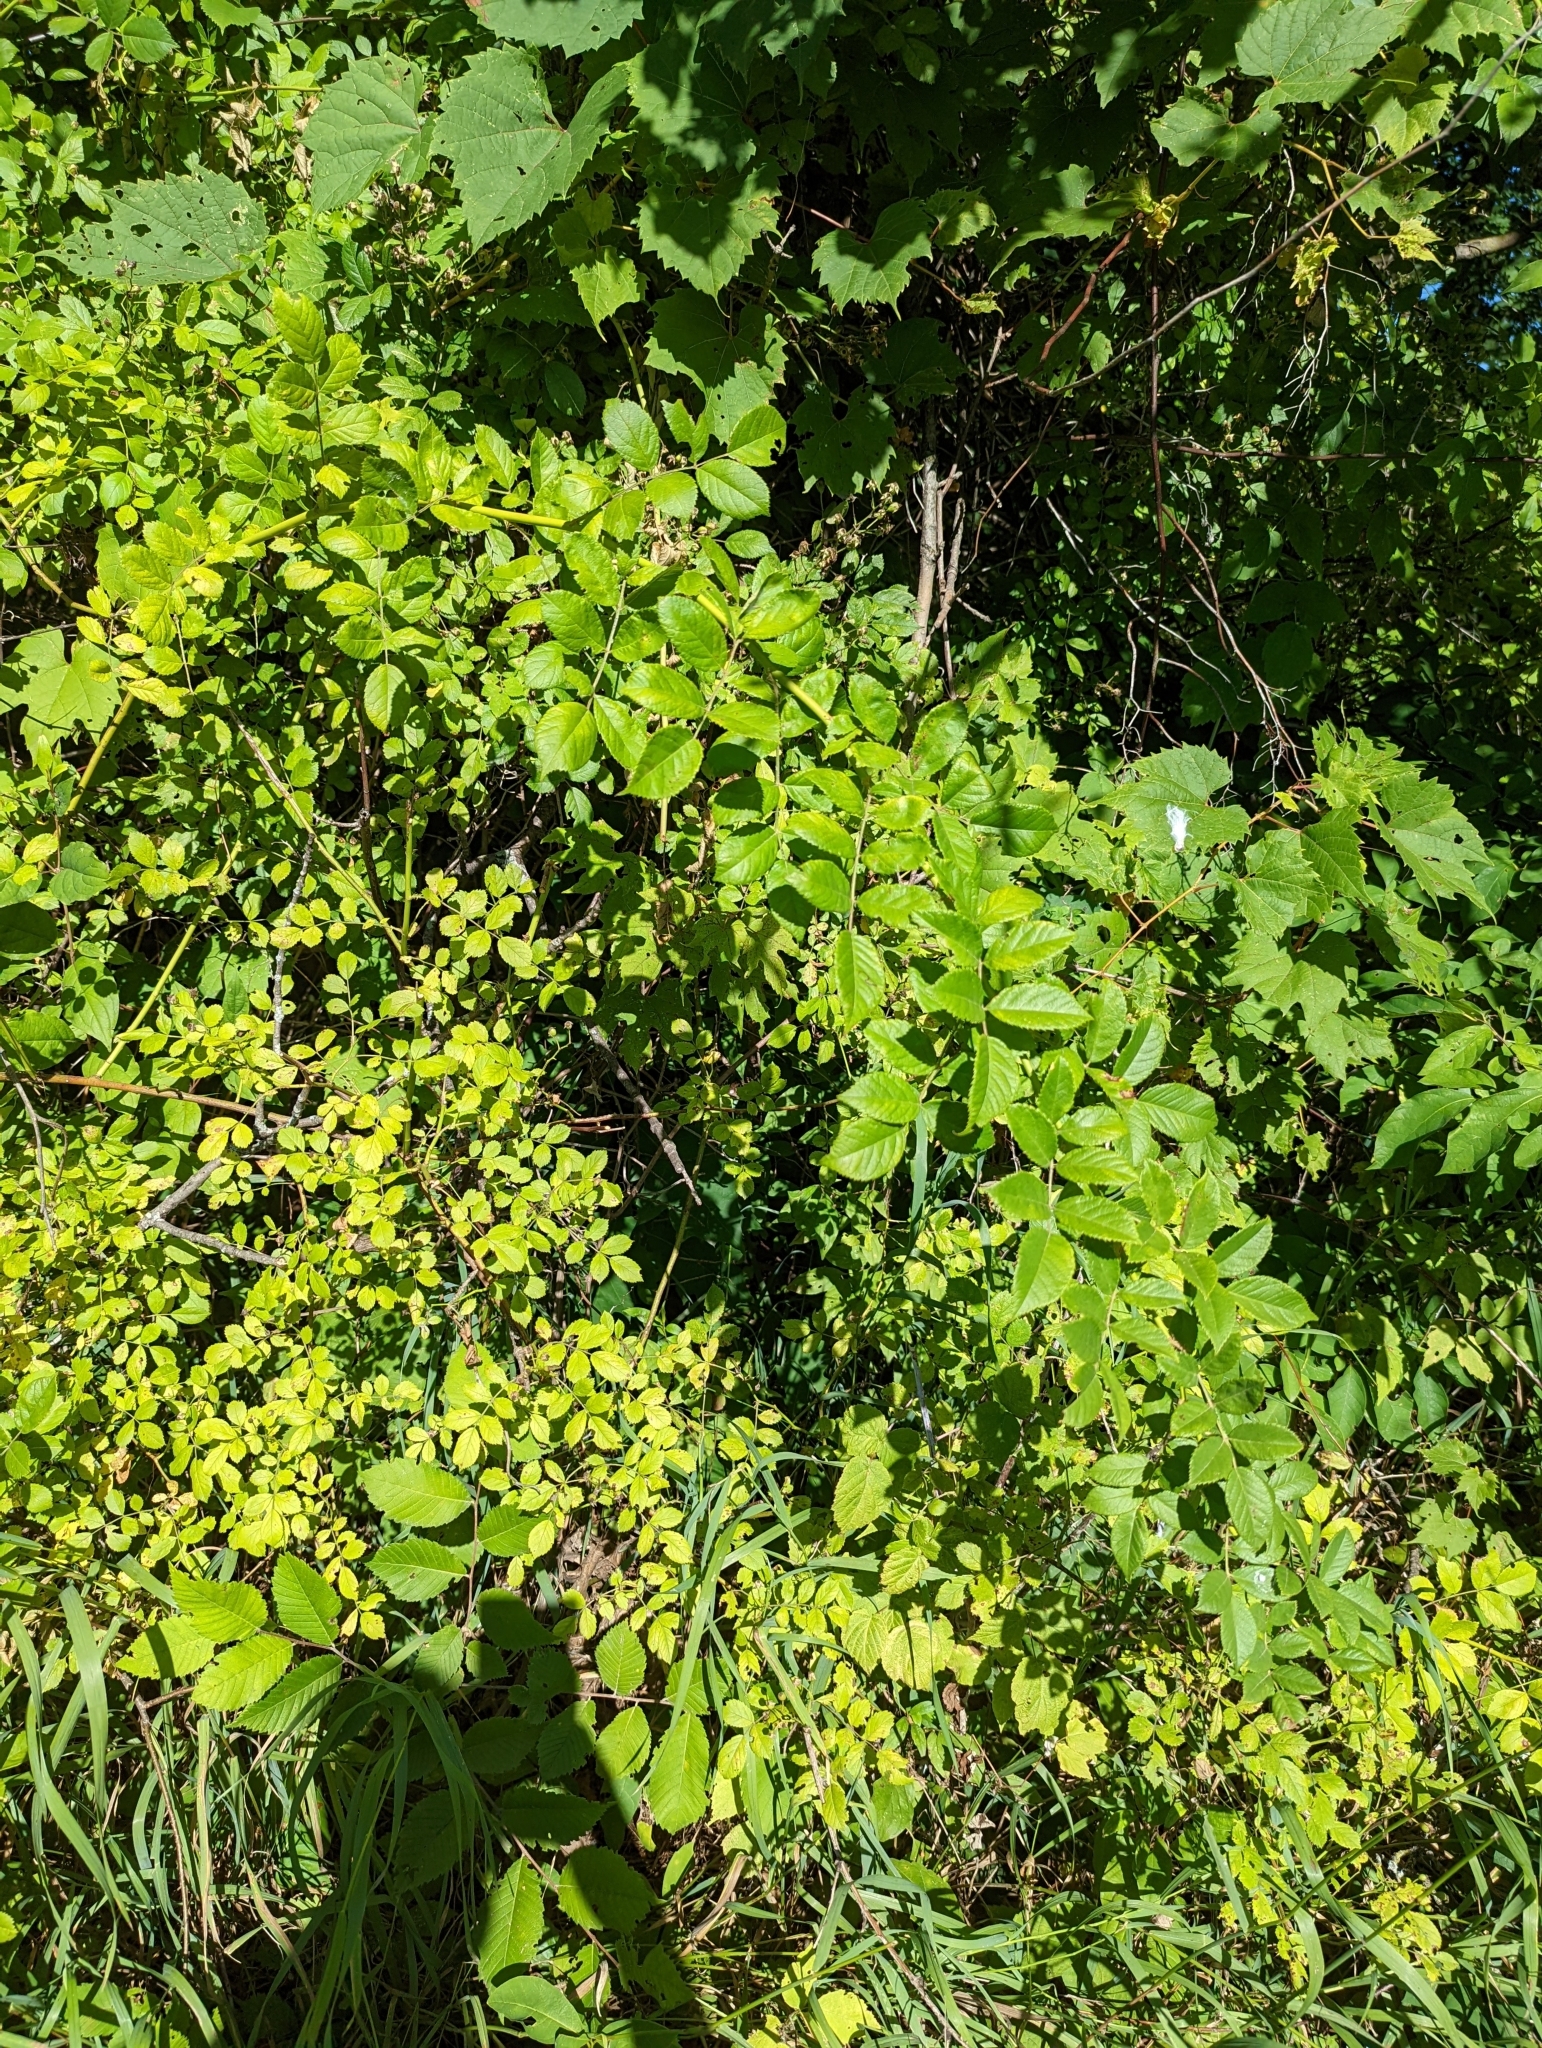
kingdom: Plantae
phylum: Tracheophyta
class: Magnoliopsida
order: Rosales
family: Rosaceae
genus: Rosa
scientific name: Rosa multiflora
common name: Multiflora rose
